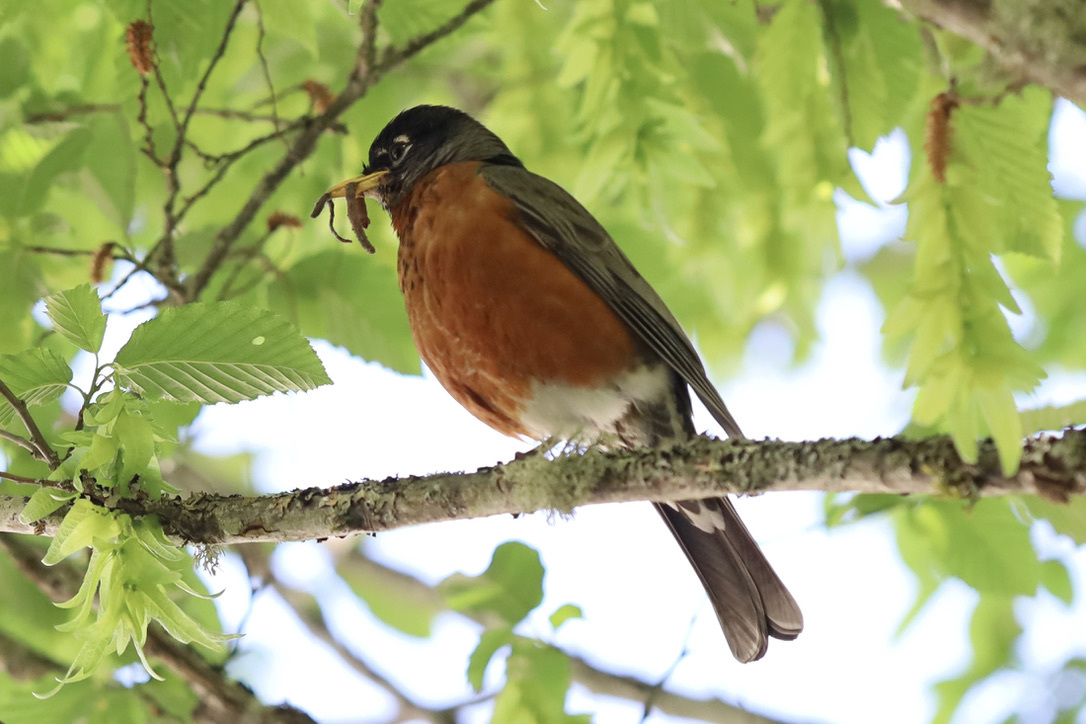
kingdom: Animalia
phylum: Chordata
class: Aves
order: Passeriformes
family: Turdidae
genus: Turdus
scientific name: Turdus migratorius
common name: American robin
